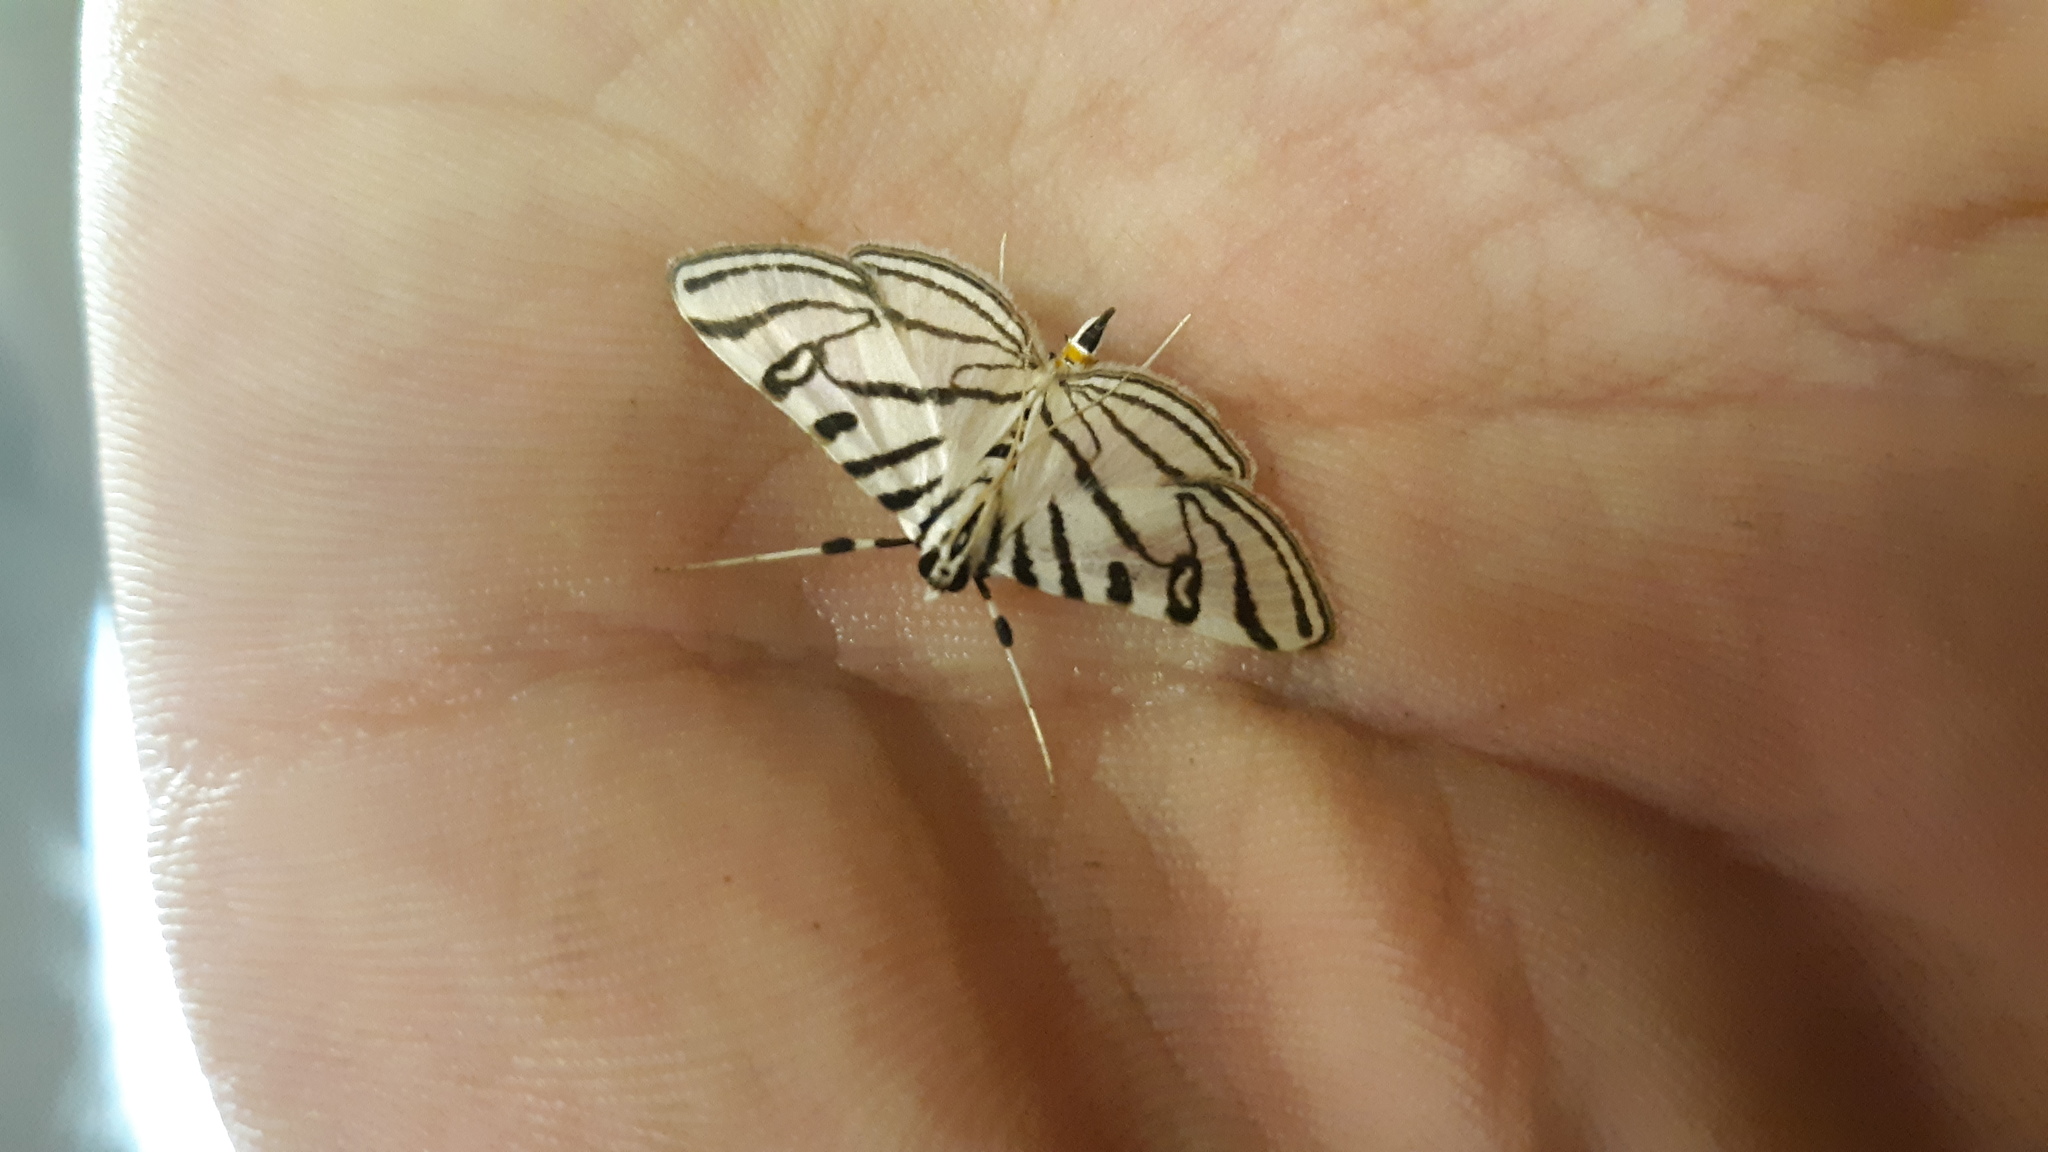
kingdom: Animalia
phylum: Arthropoda
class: Insecta
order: Lepidoptera
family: Crambidae
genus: Conchylodes
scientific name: Conchylodes ovulalis
